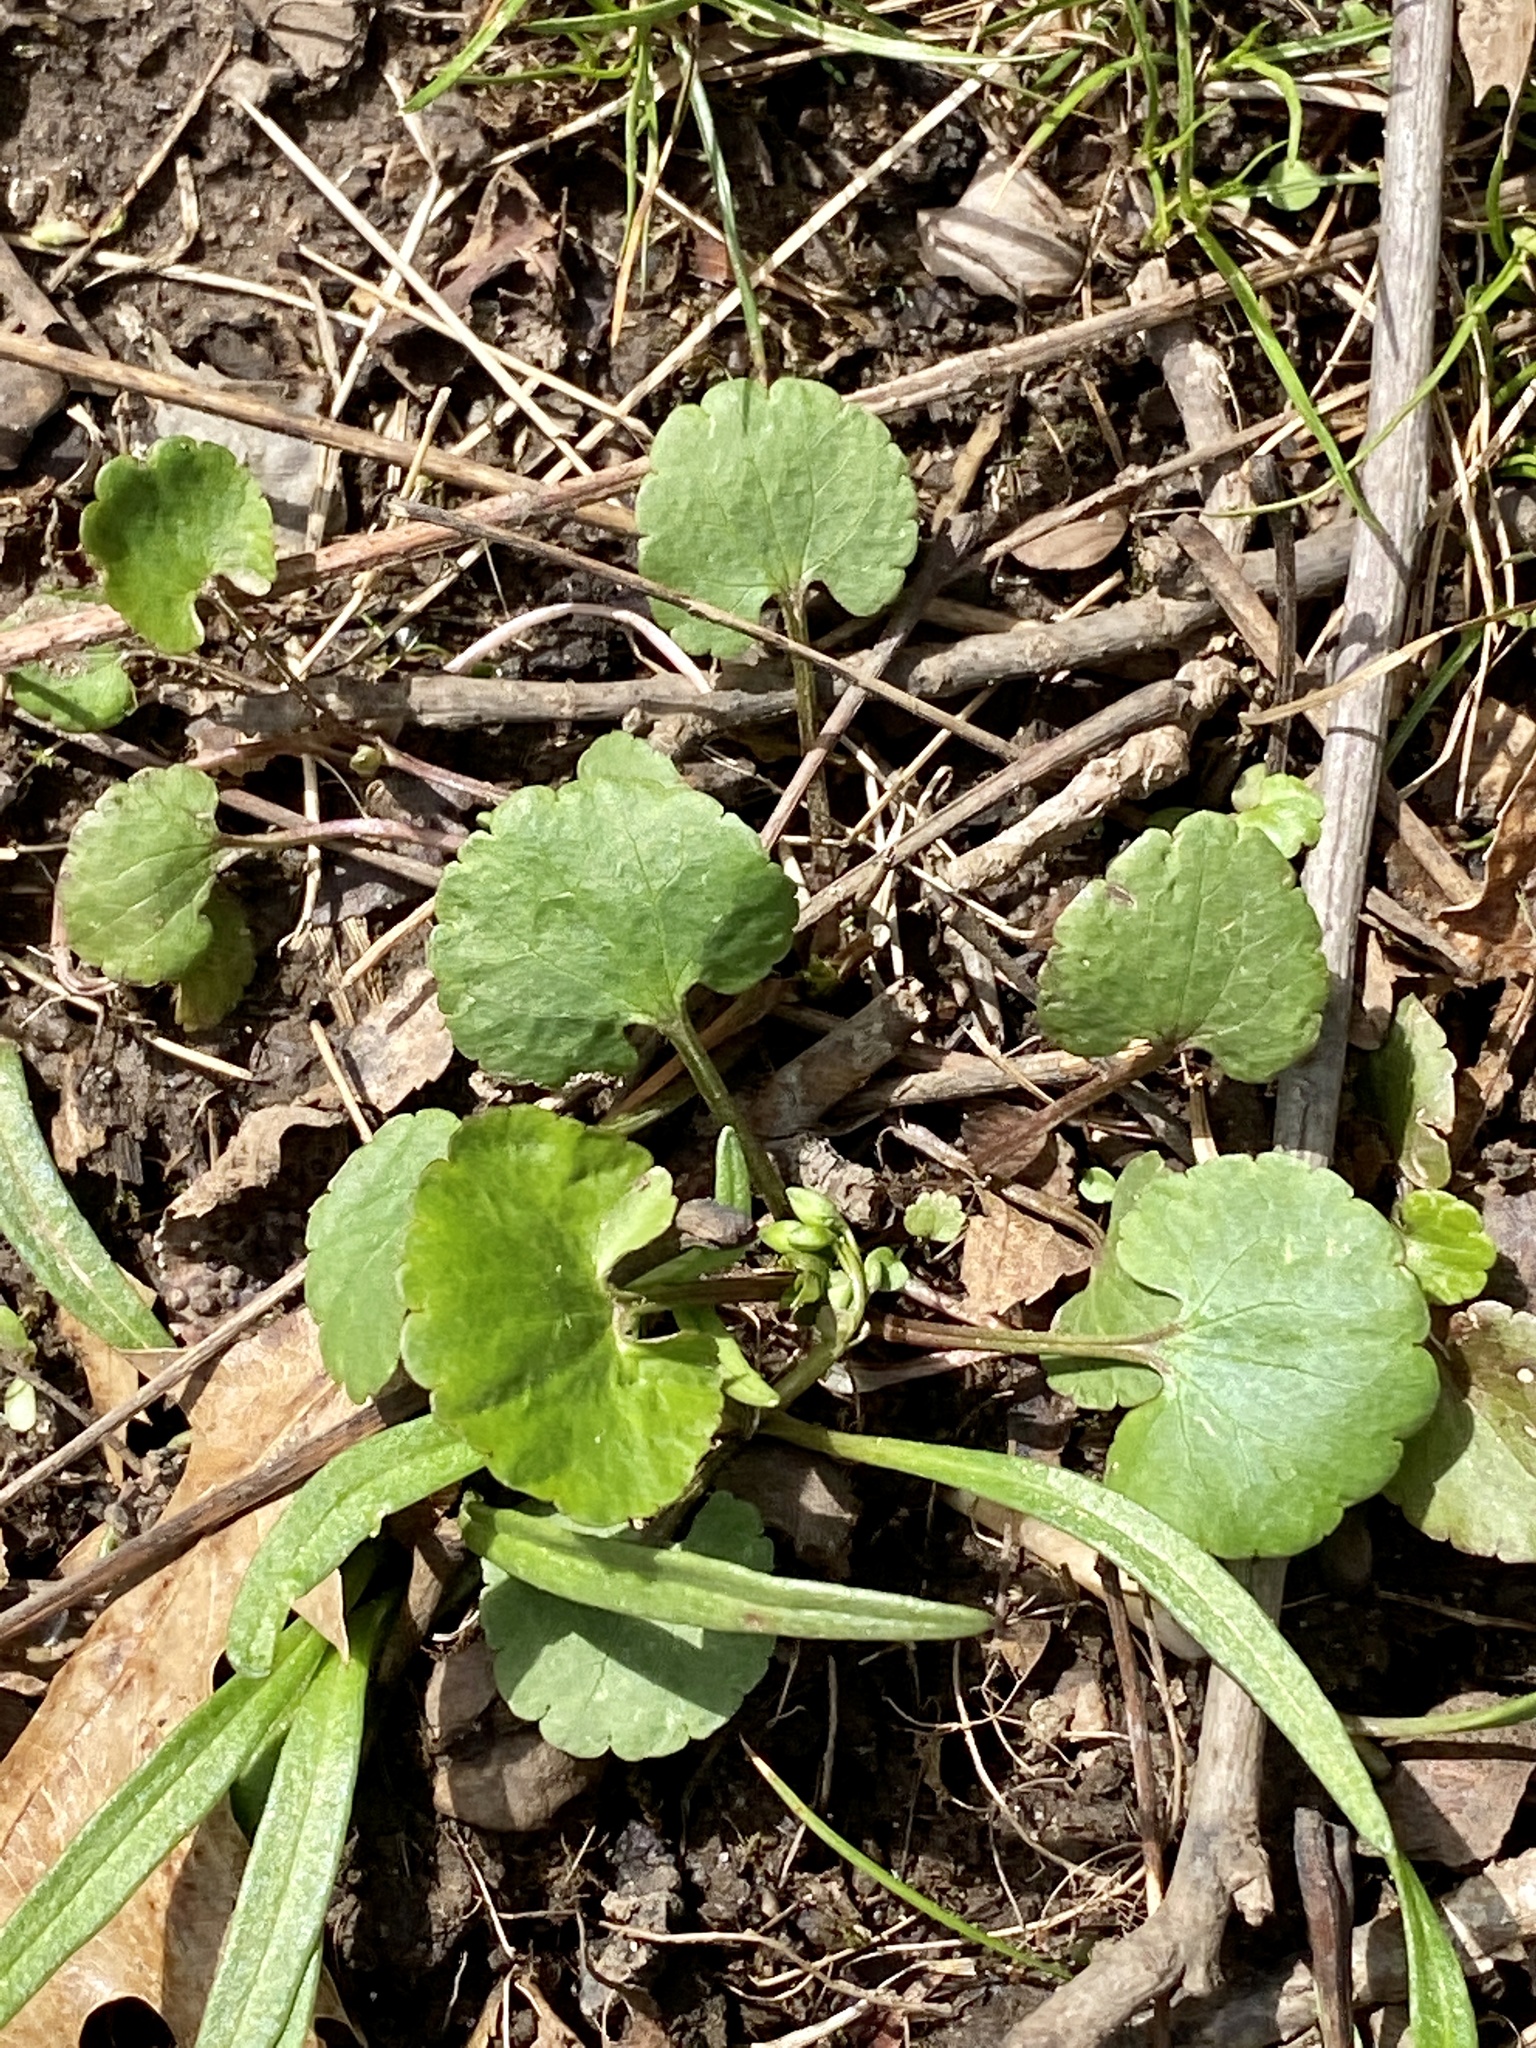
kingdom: Plantae
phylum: Tracheophyta
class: Magnoliopsida
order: Ranunculales
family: Ranunculaceae
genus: Ranunculus
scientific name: Ranunculus abortivus
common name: Early wood buttercup
